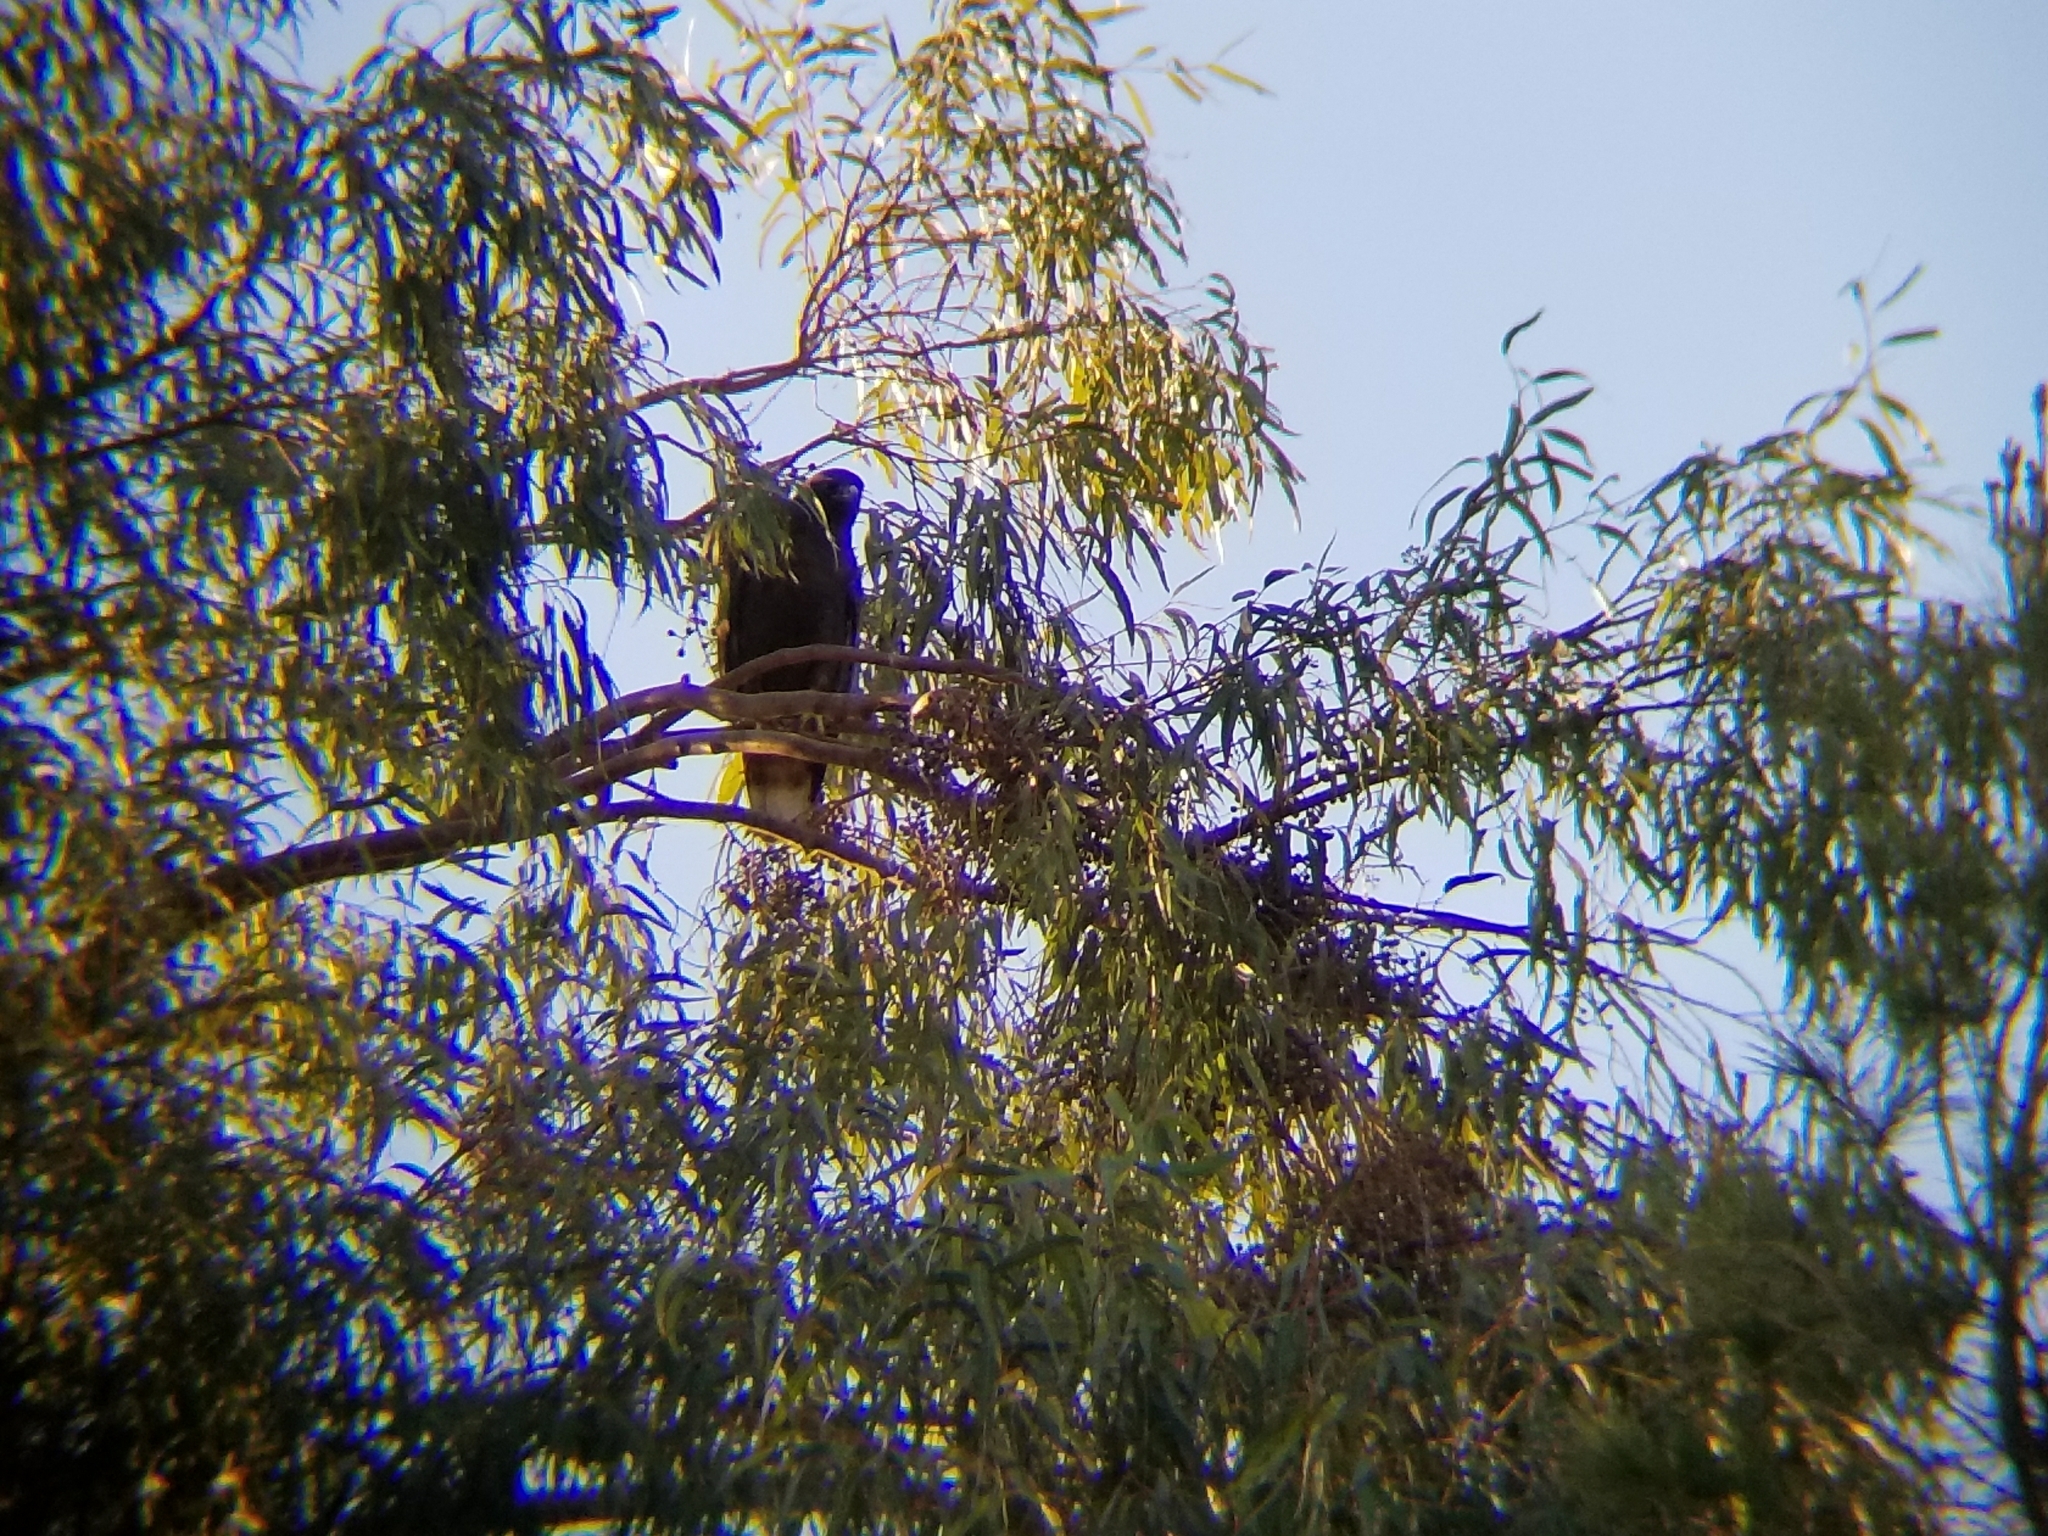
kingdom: Animalia
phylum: Chordata
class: Aves
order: Accipitriformes
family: Accipitridae
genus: Buteo
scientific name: Buteo jamaicensis
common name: Red-tailed hawk
